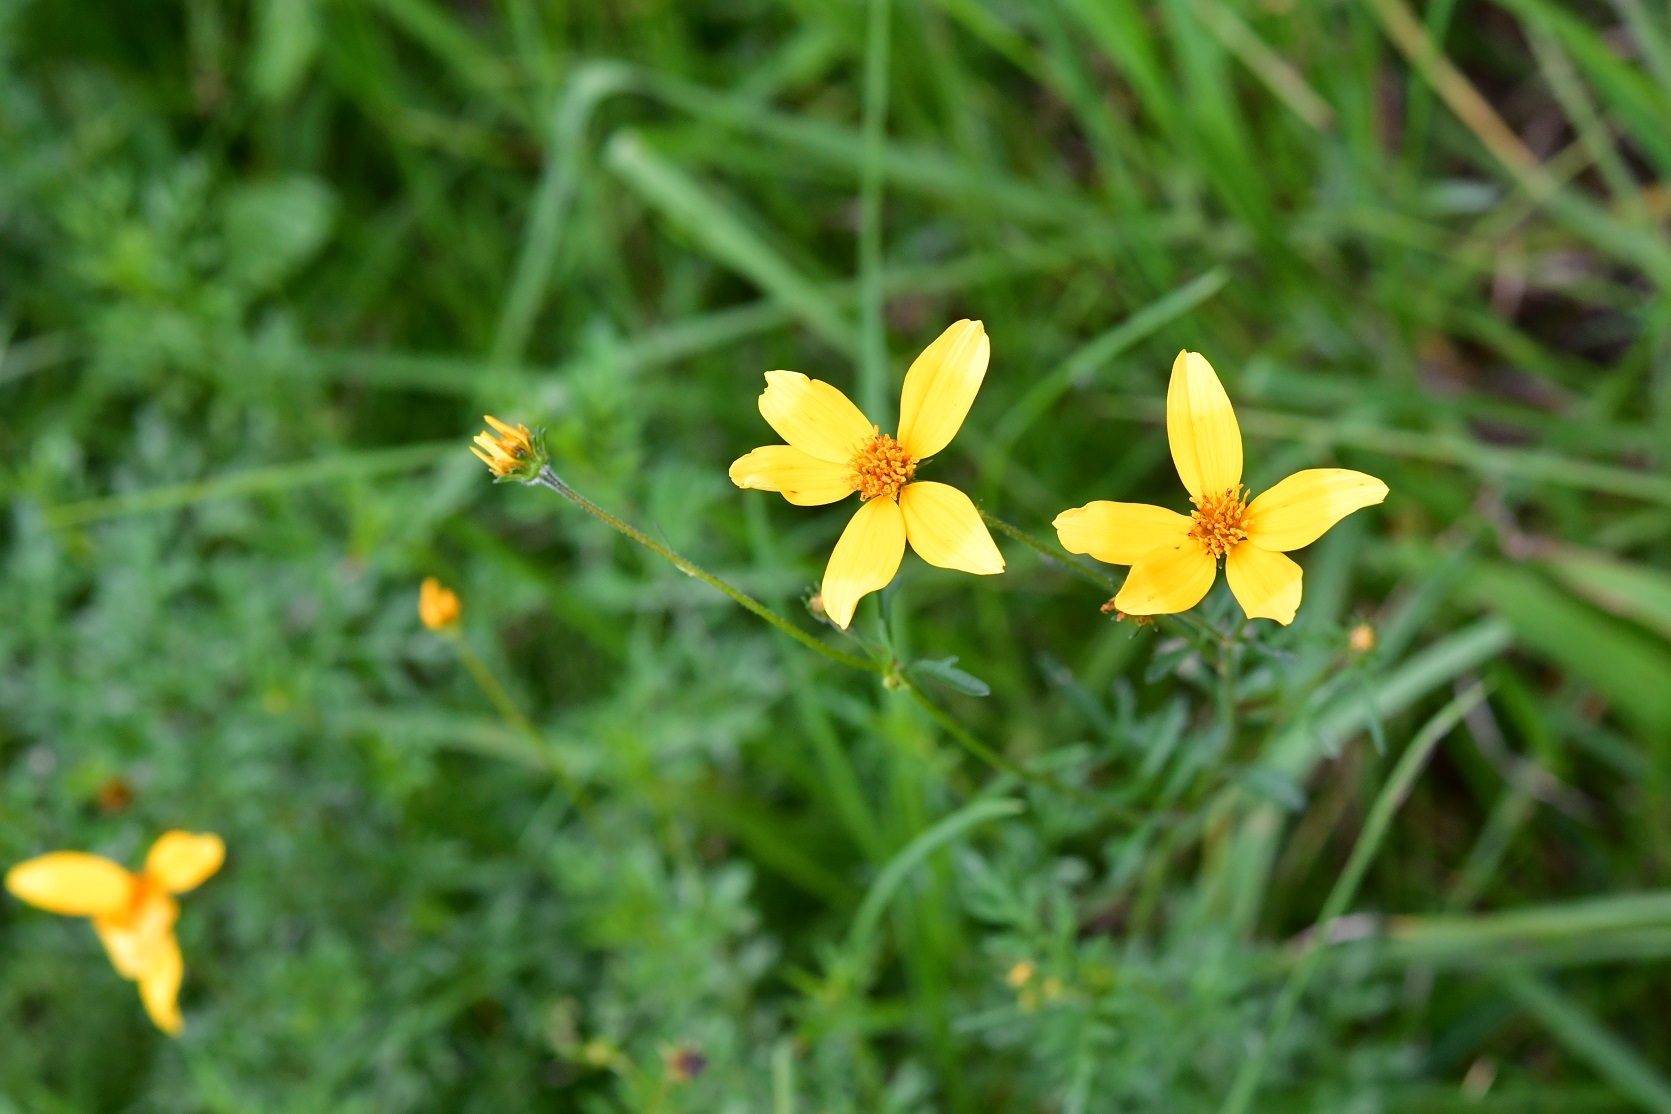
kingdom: Plantae
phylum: Tracheophyta
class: Magnoliopsida
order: Asterales
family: Asteraceae
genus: Bidens
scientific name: Bidens triplinervia
